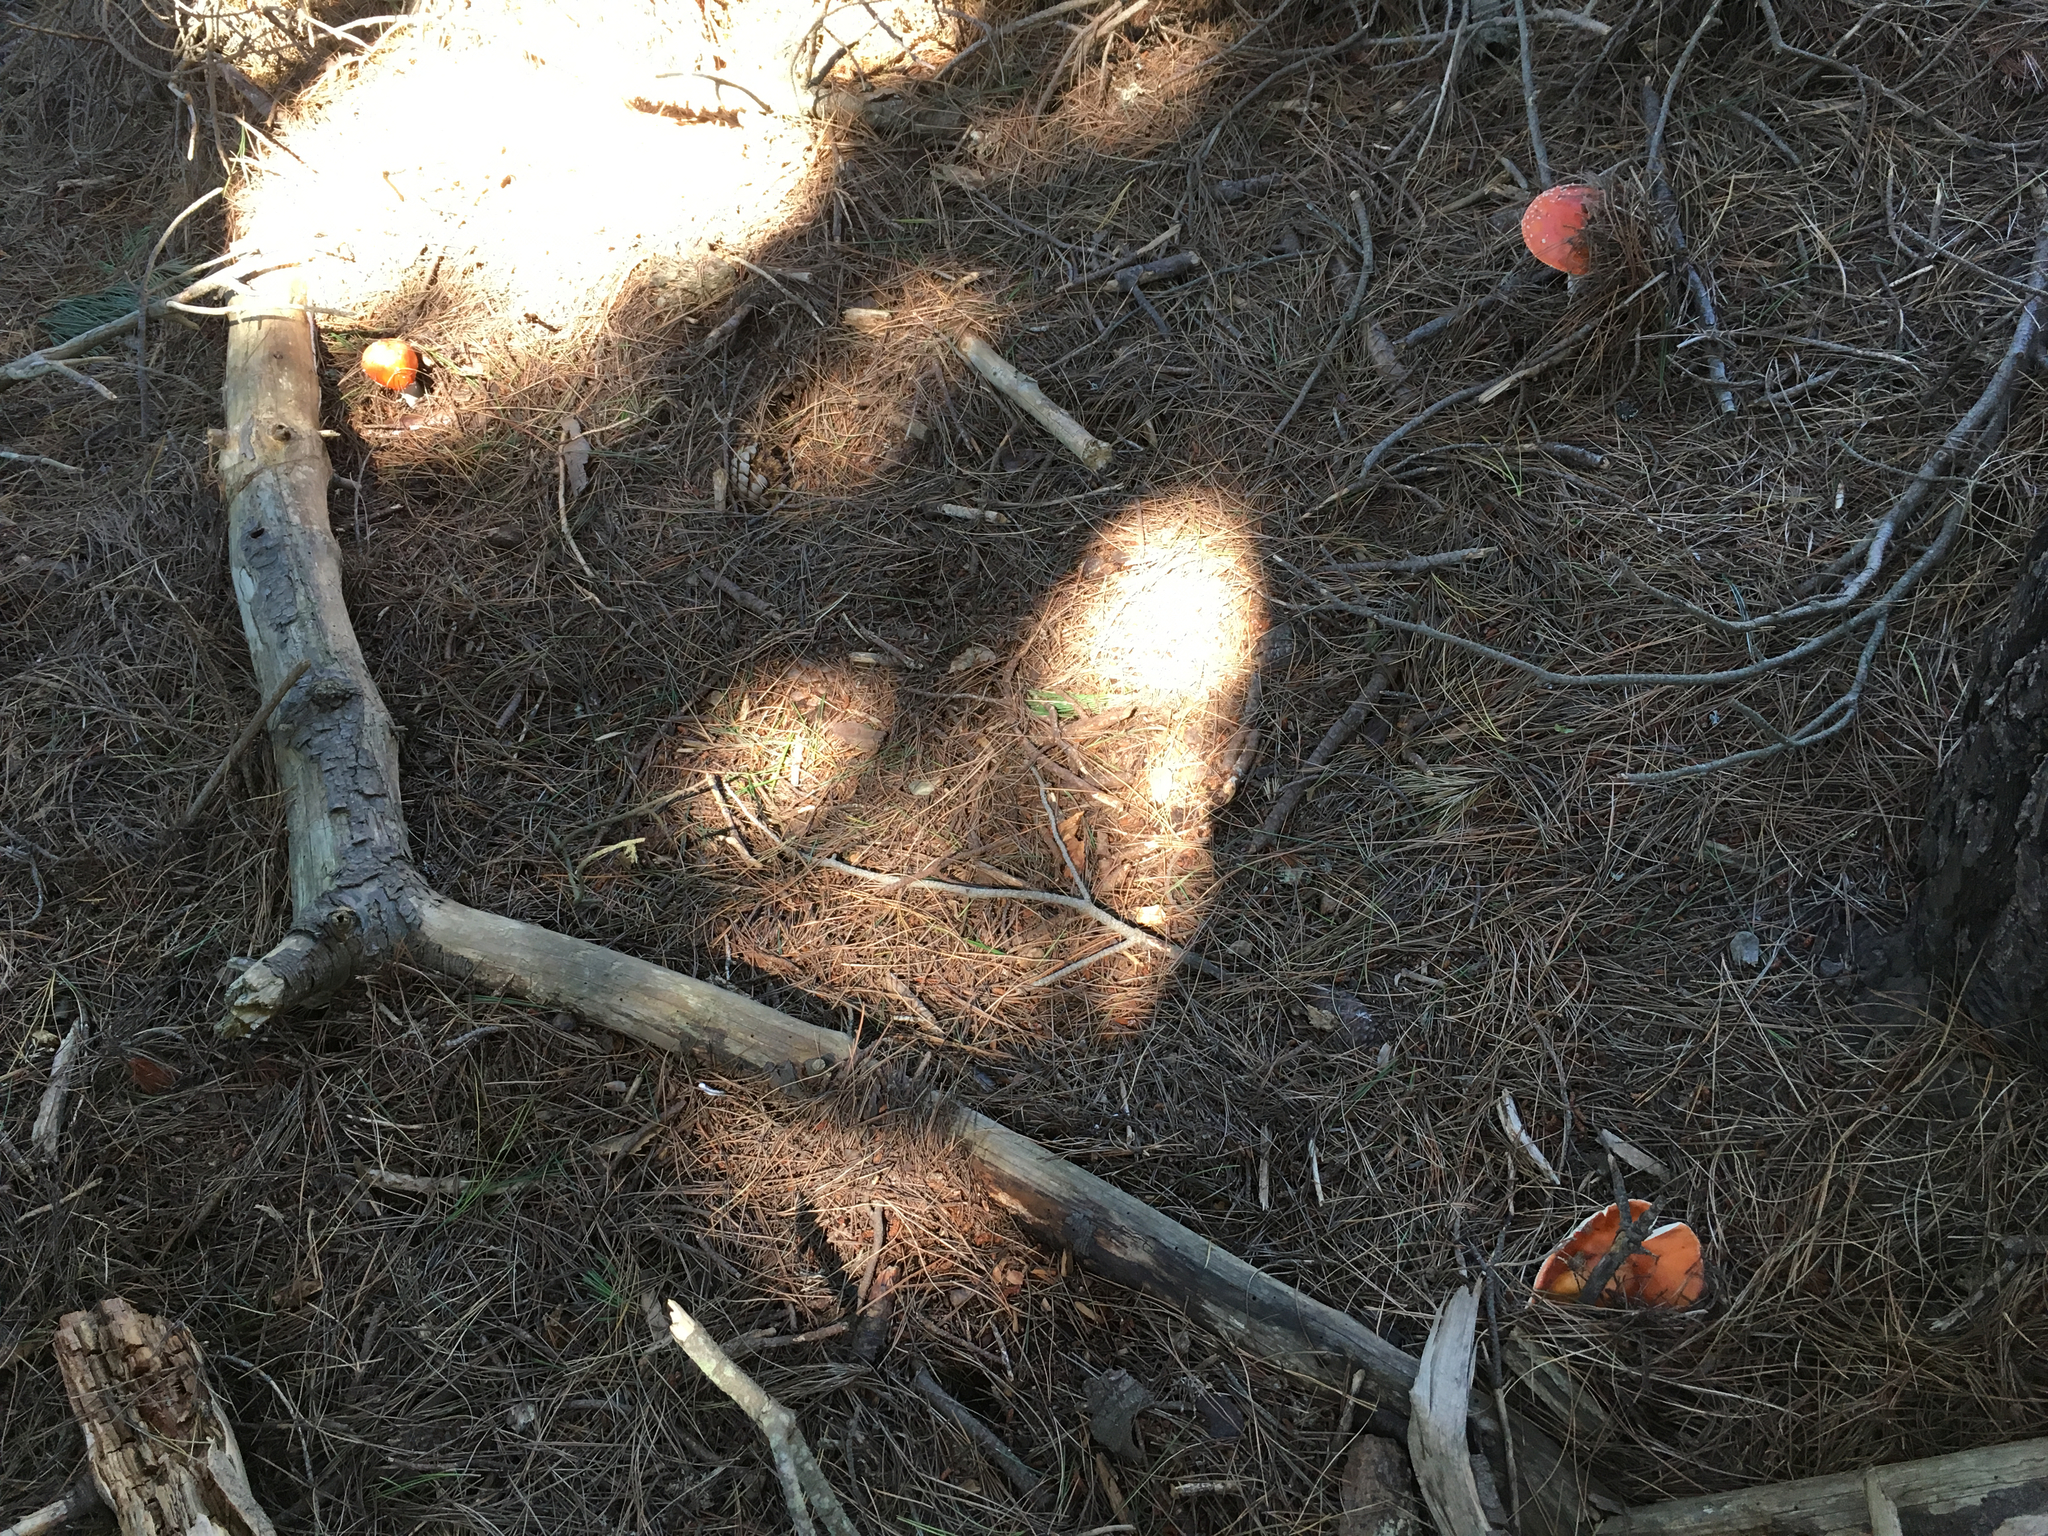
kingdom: Fungi
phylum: Basidiomycota
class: Agaricomycetes
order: Agaricales
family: Amanitaceae
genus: Amanita
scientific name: Amanita muscaria
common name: Fly agaric
